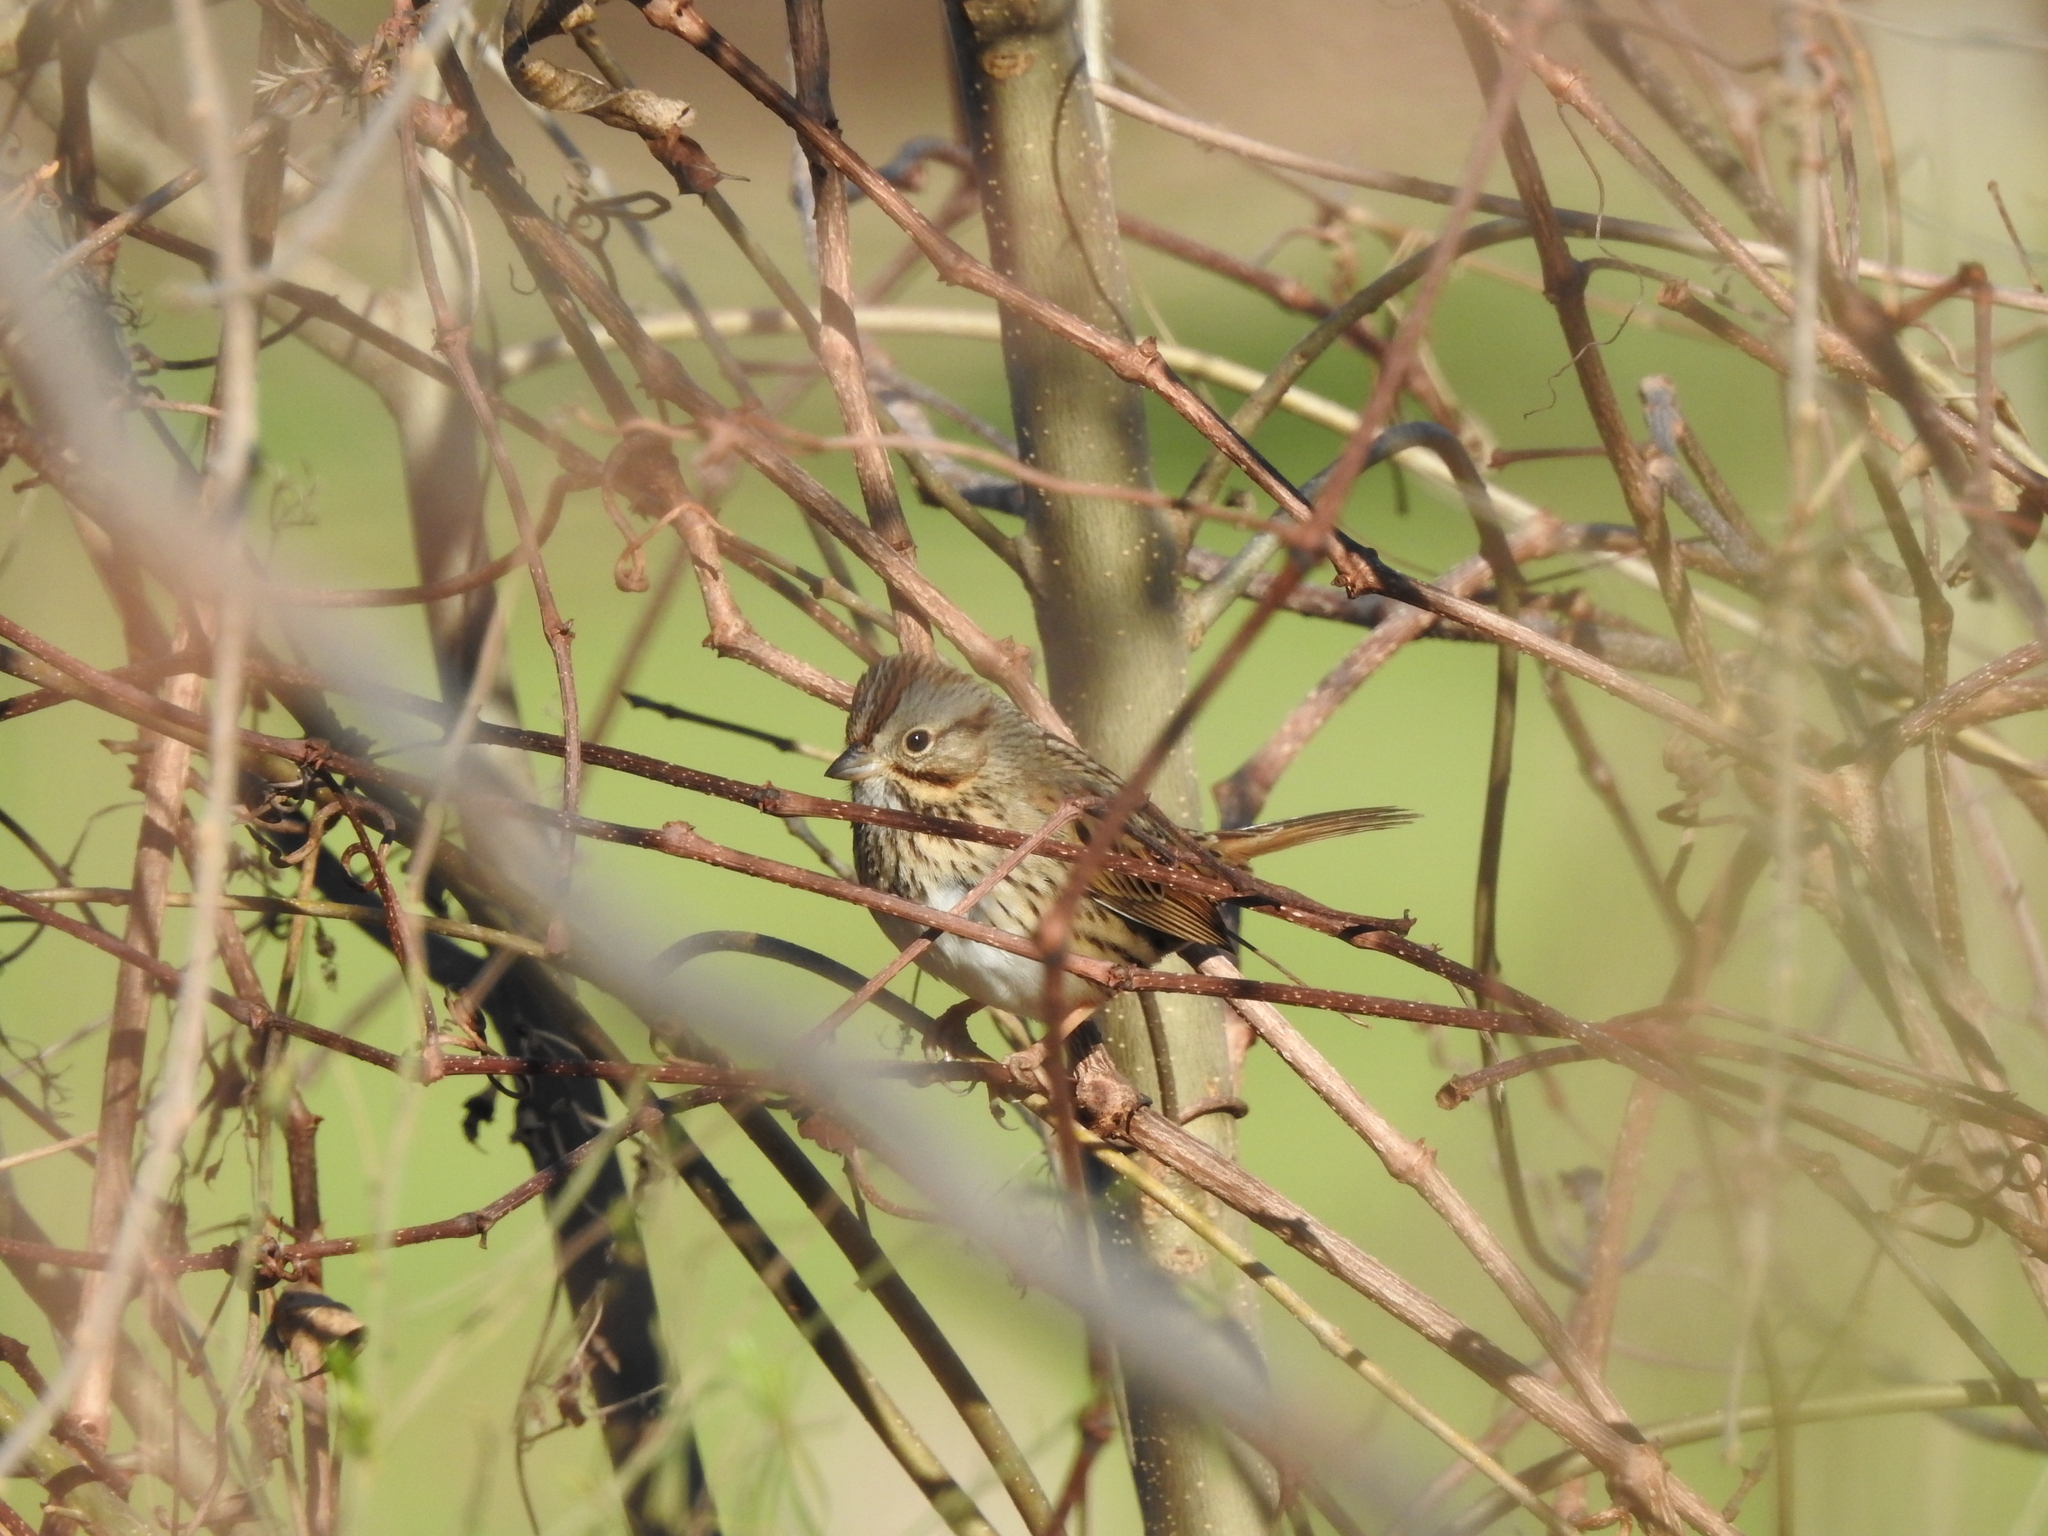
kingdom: Animalia
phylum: Chordata
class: Aves
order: Passeriformes
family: Passerellidae
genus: Melospiza
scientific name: Melospiza lincolnii
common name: Lincoln's sparrow
